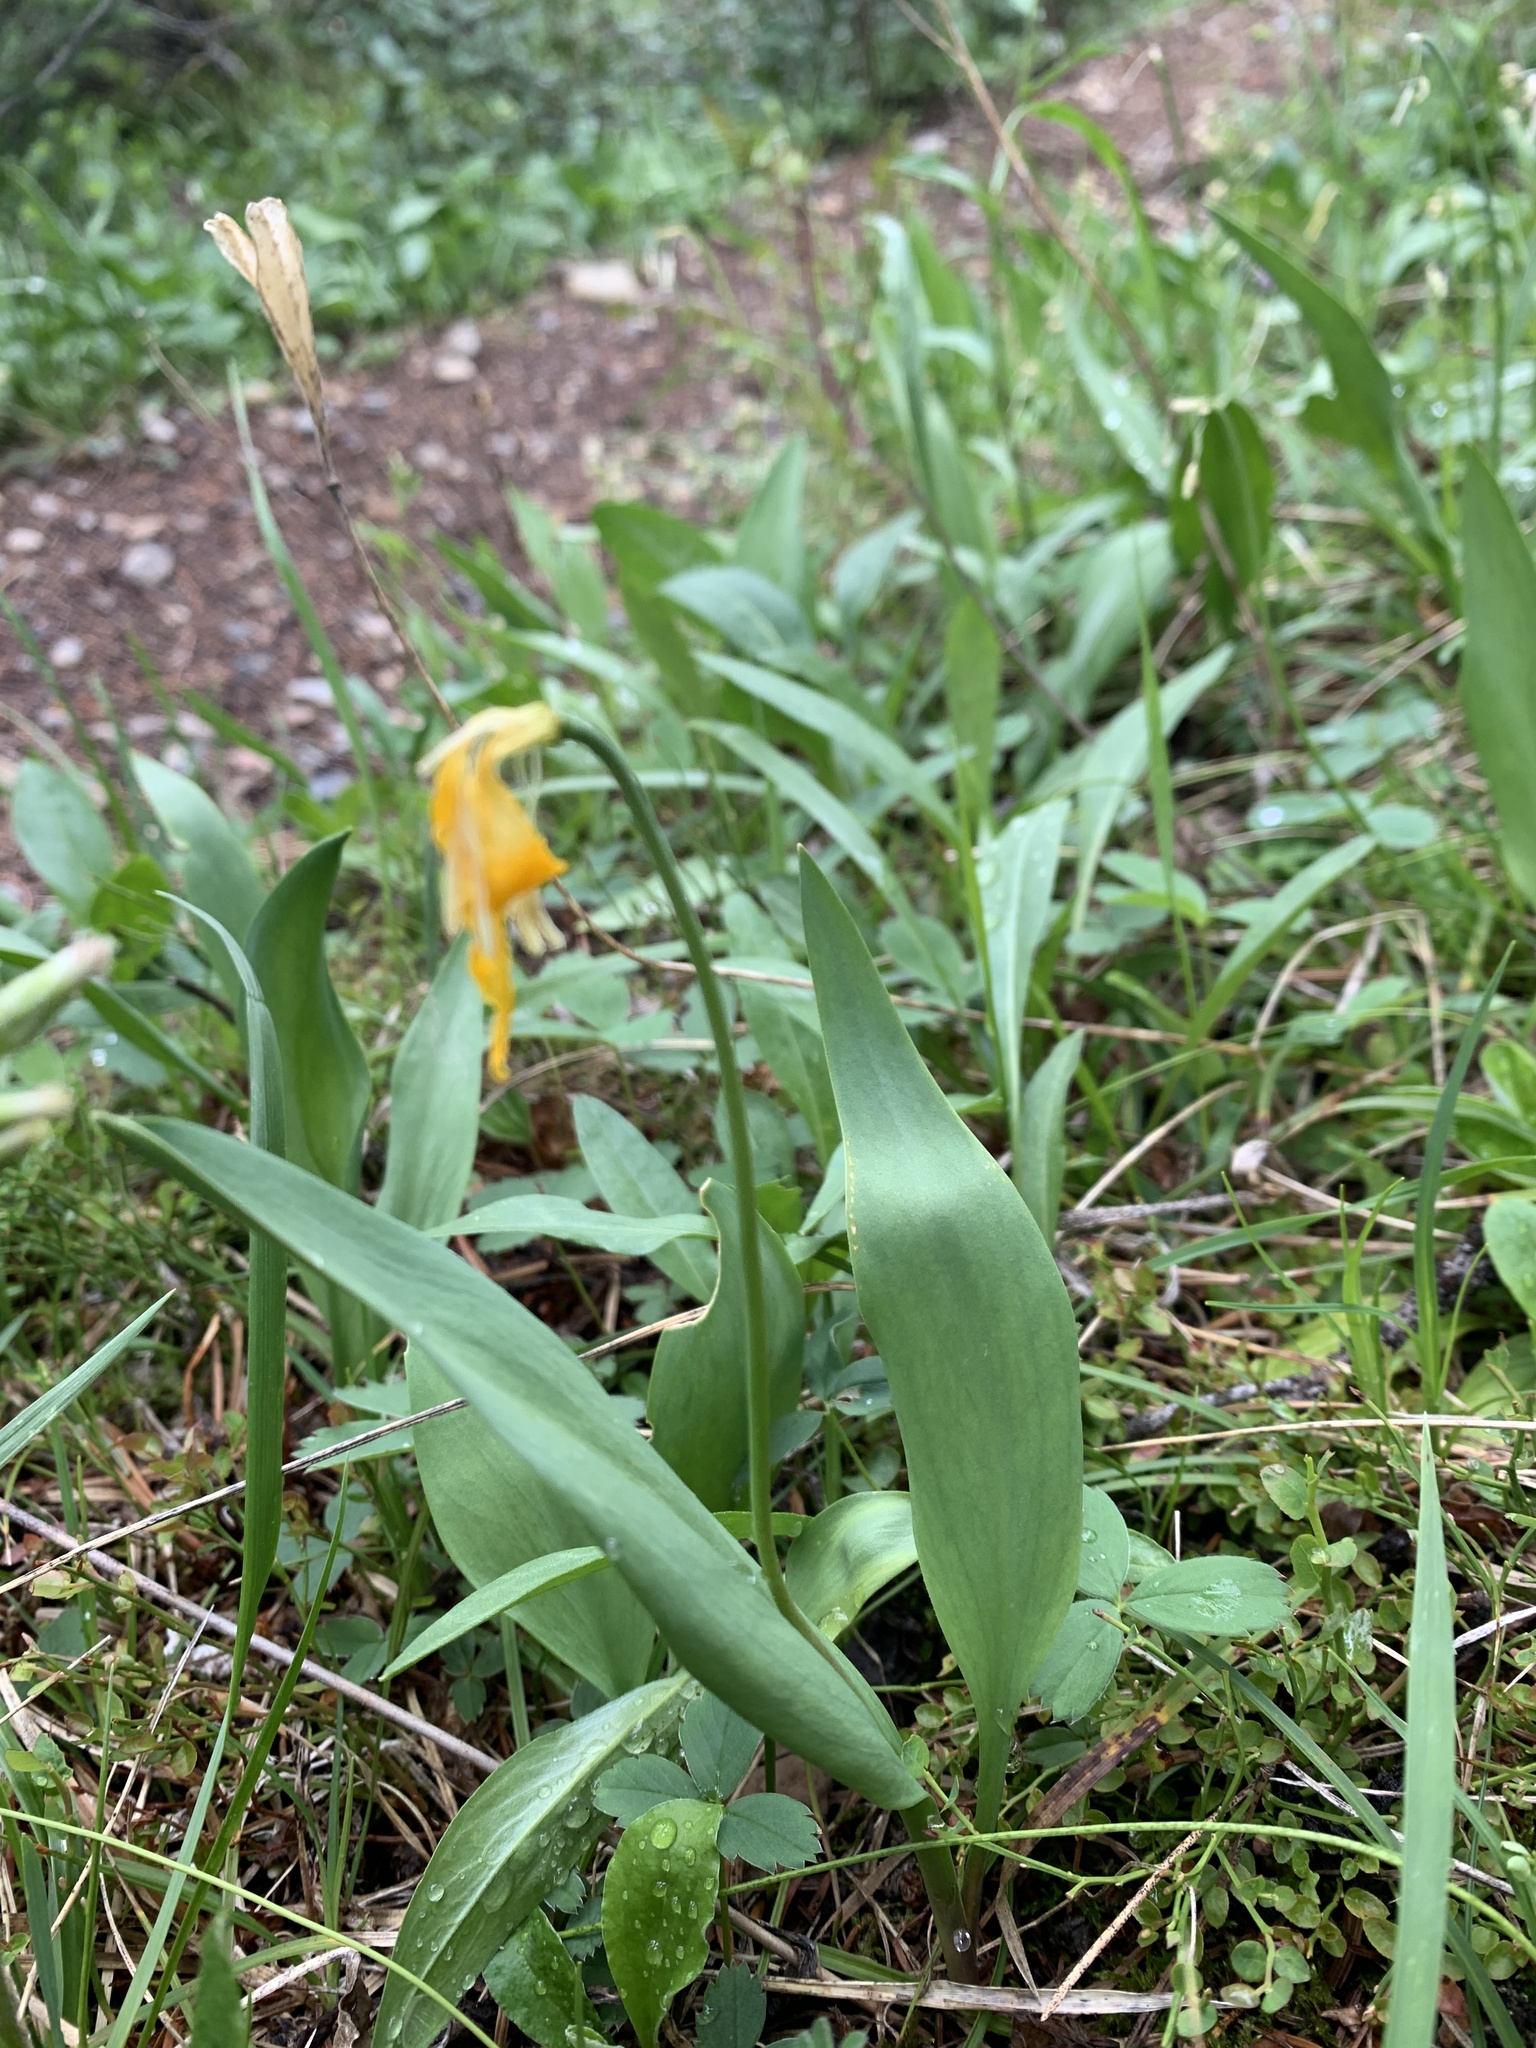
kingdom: Plantae
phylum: Tracheophyta
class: Liliopsida
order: Liliales
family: Liliaceae
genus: Erythronium
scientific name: Erythronium grandiflorum
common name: Avalanche-lily
